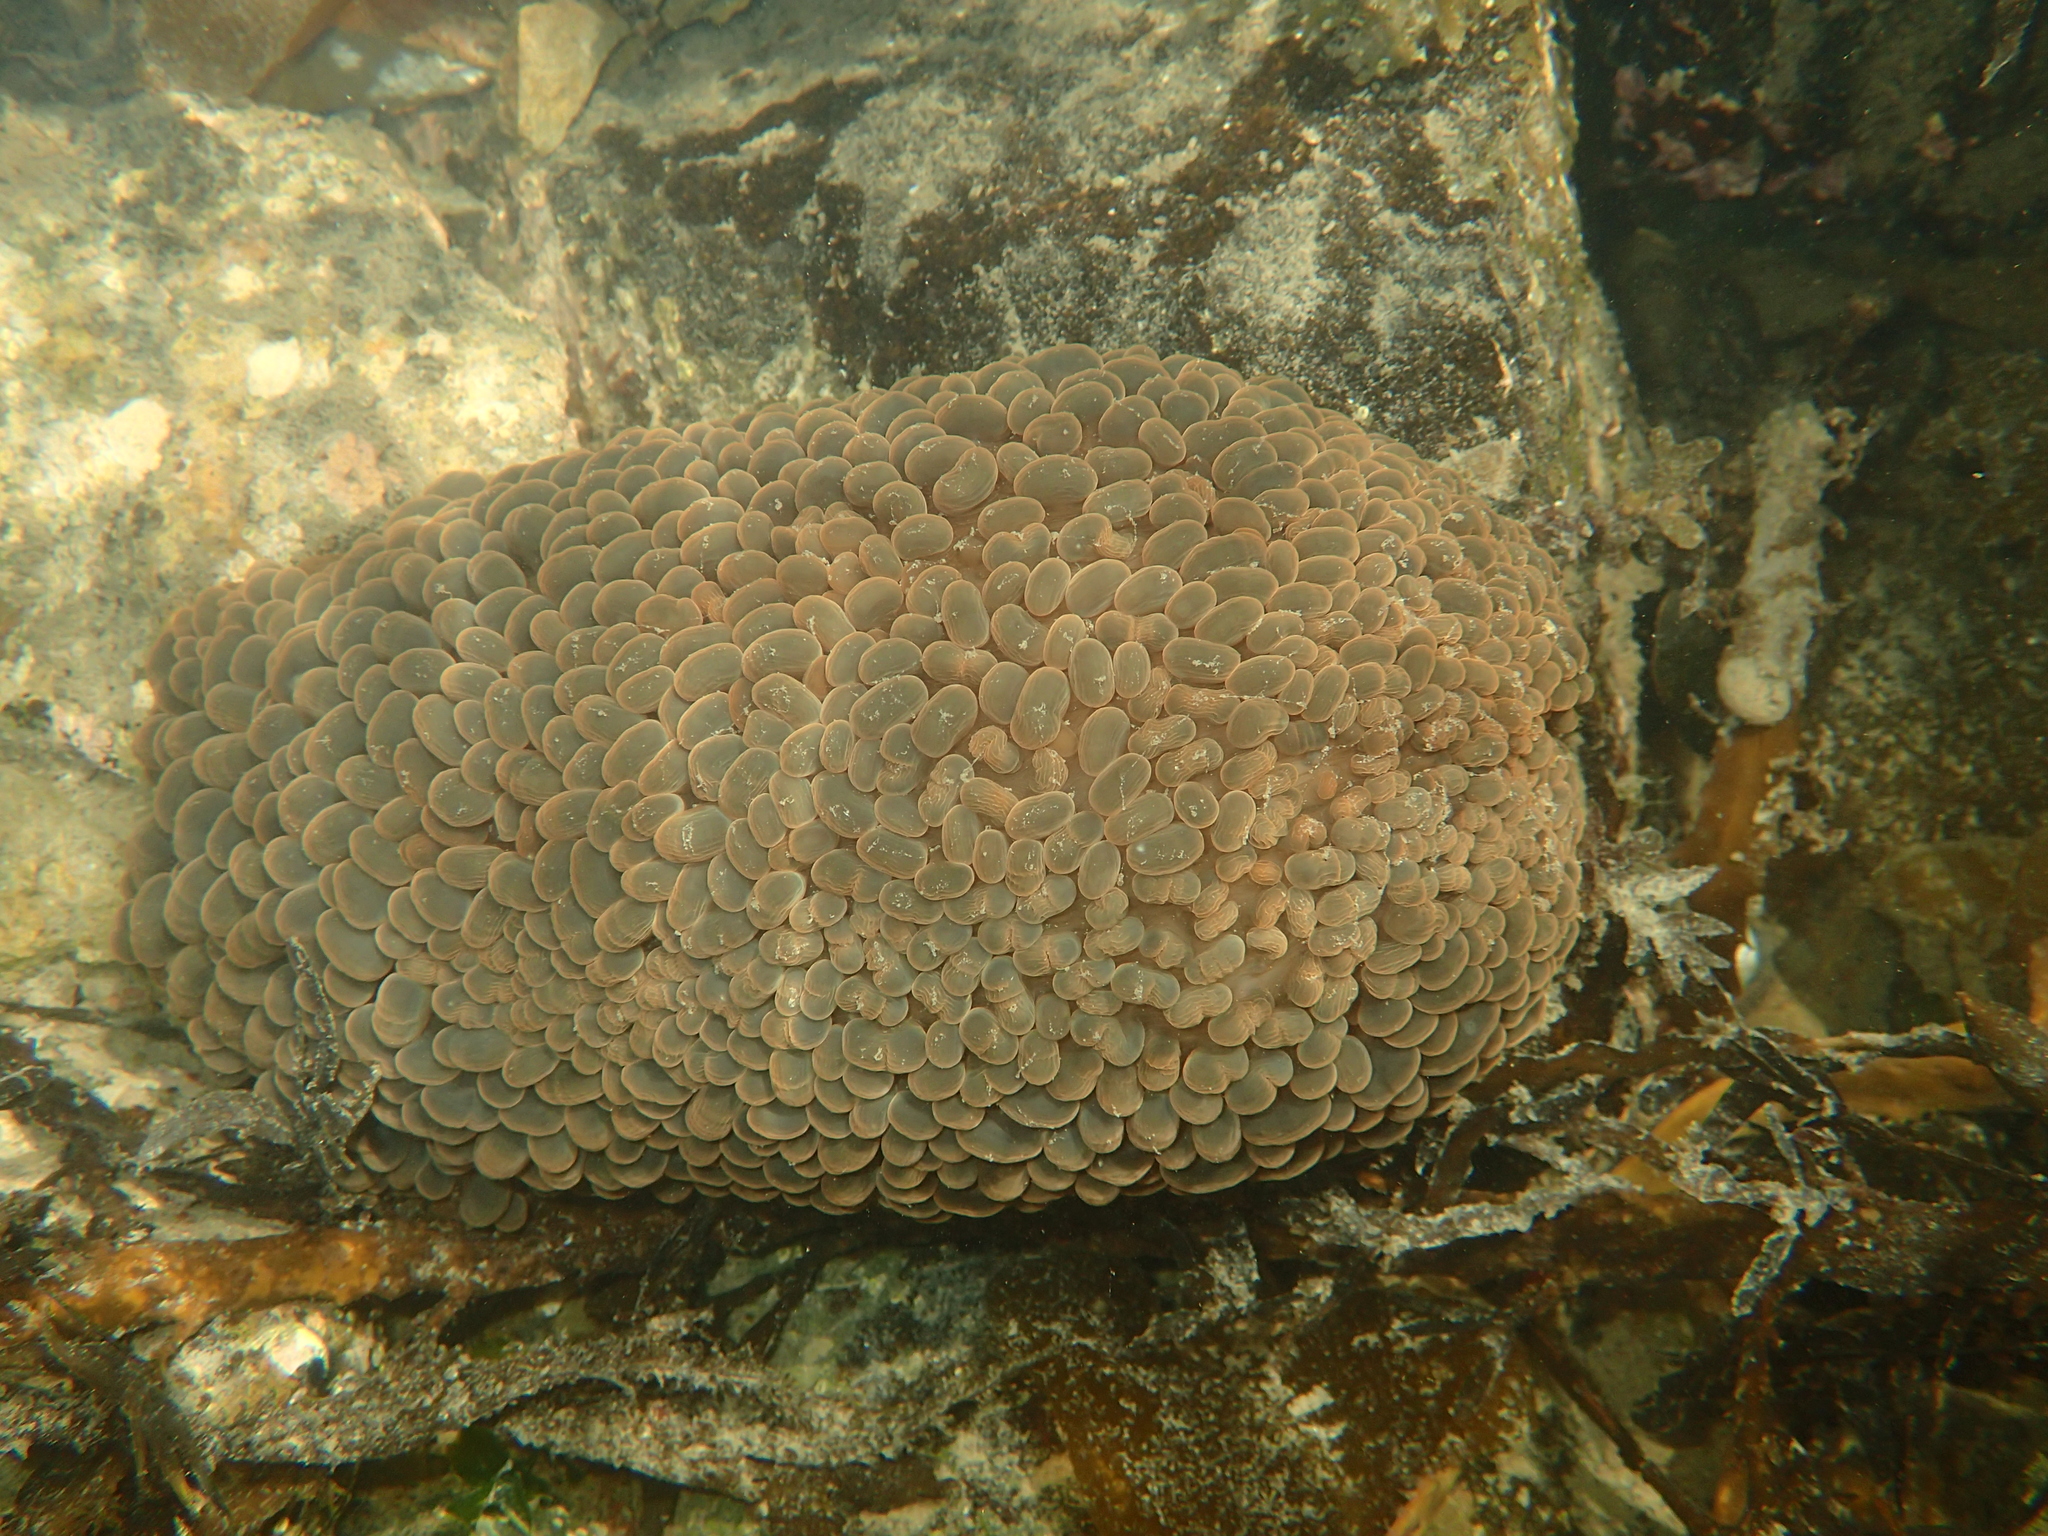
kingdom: Animalia
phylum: Cnidaria
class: Anthozoa
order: Actiniaria
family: Actiniidae
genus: Phlyctenactis
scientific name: Phlyctenactis tuberculosa
